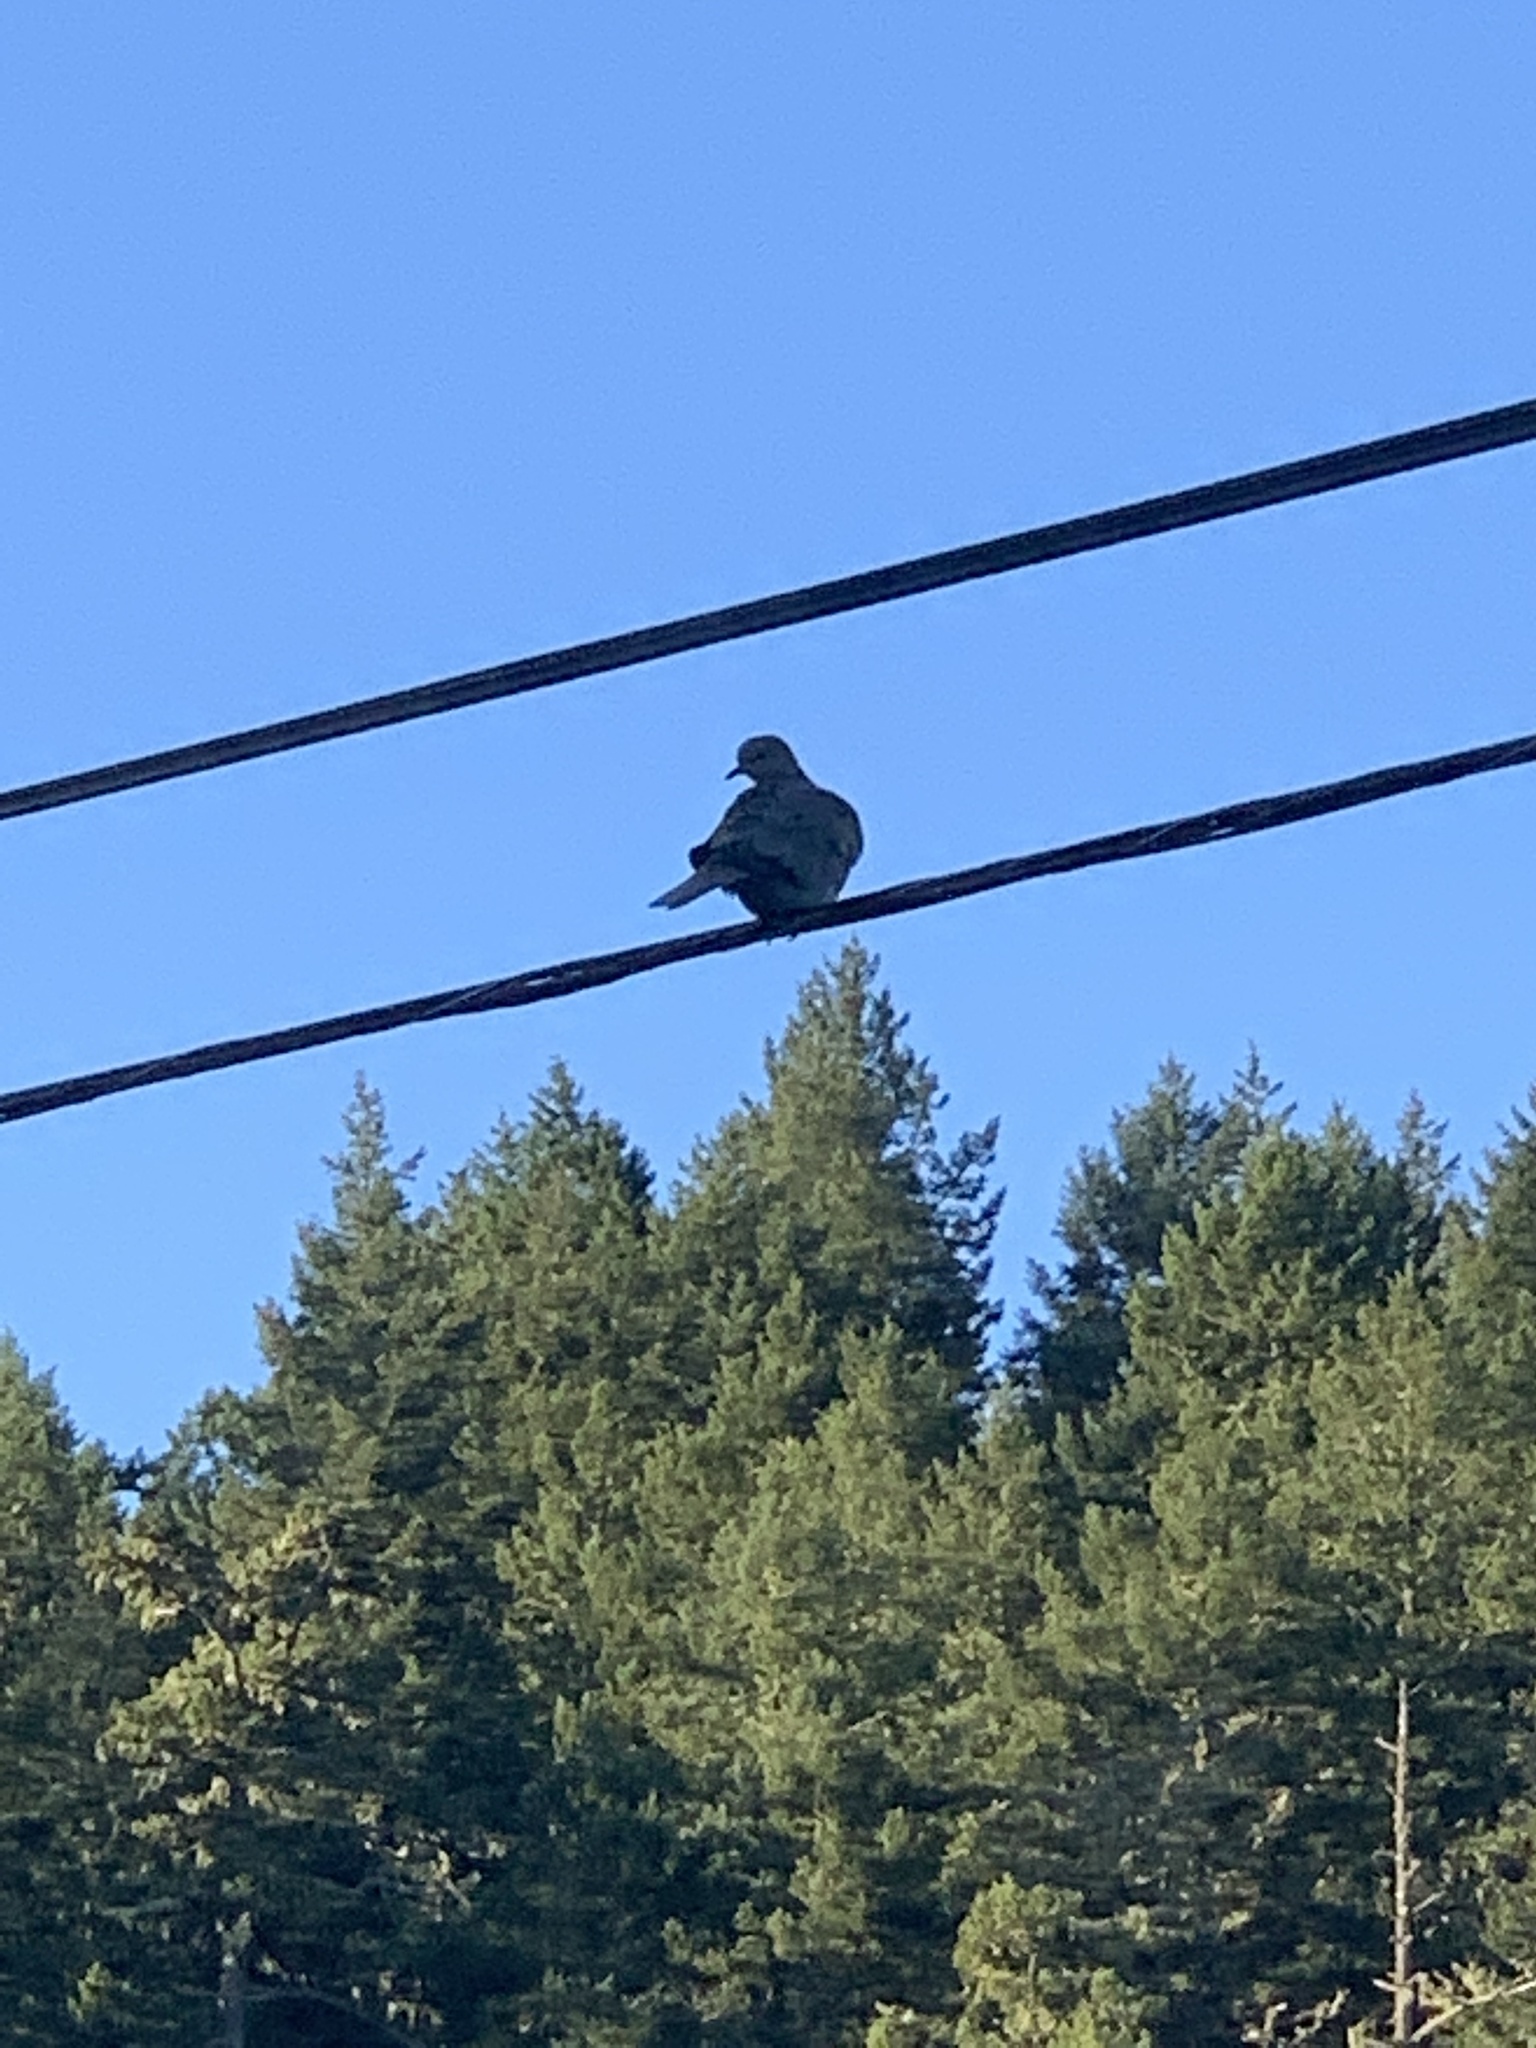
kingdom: Animalia
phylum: Chordata
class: Aves
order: Columbiformes
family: Columbidae
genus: Streptopelia
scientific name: Streptopelia decaocto
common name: Eurasian collared dove
